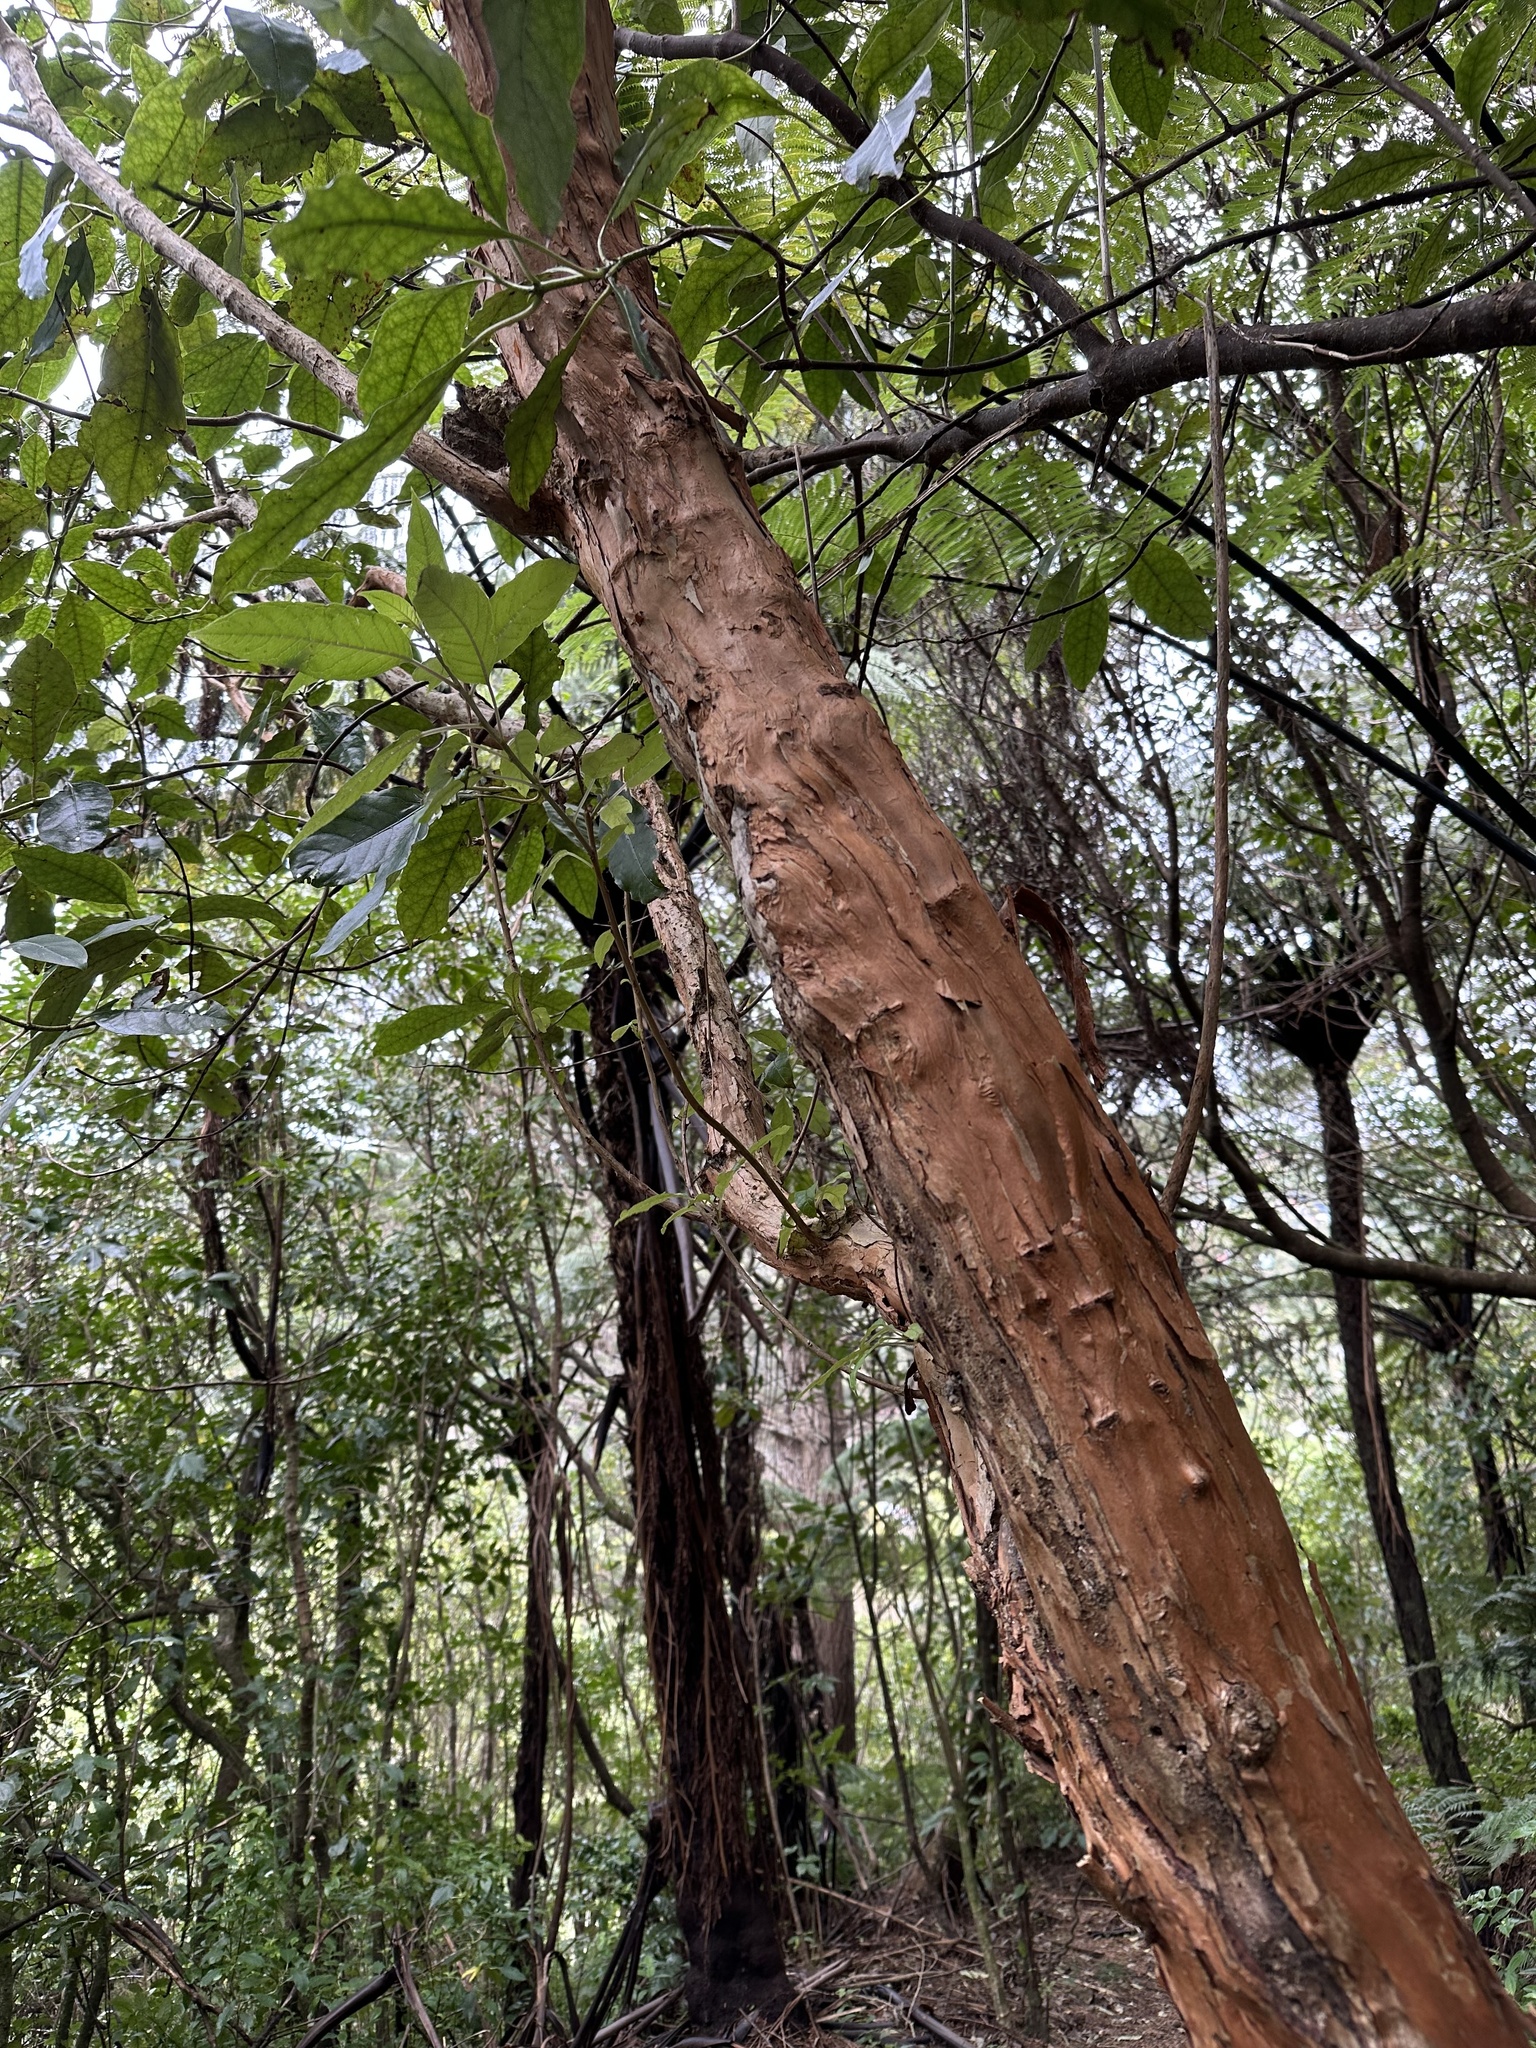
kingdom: Plantae
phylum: Tracheophyta
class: Magnoliopsida
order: Myrtales
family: Onagraceae
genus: Fuchsia
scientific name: Fuchsia excorticata
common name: Tree fuchsia
